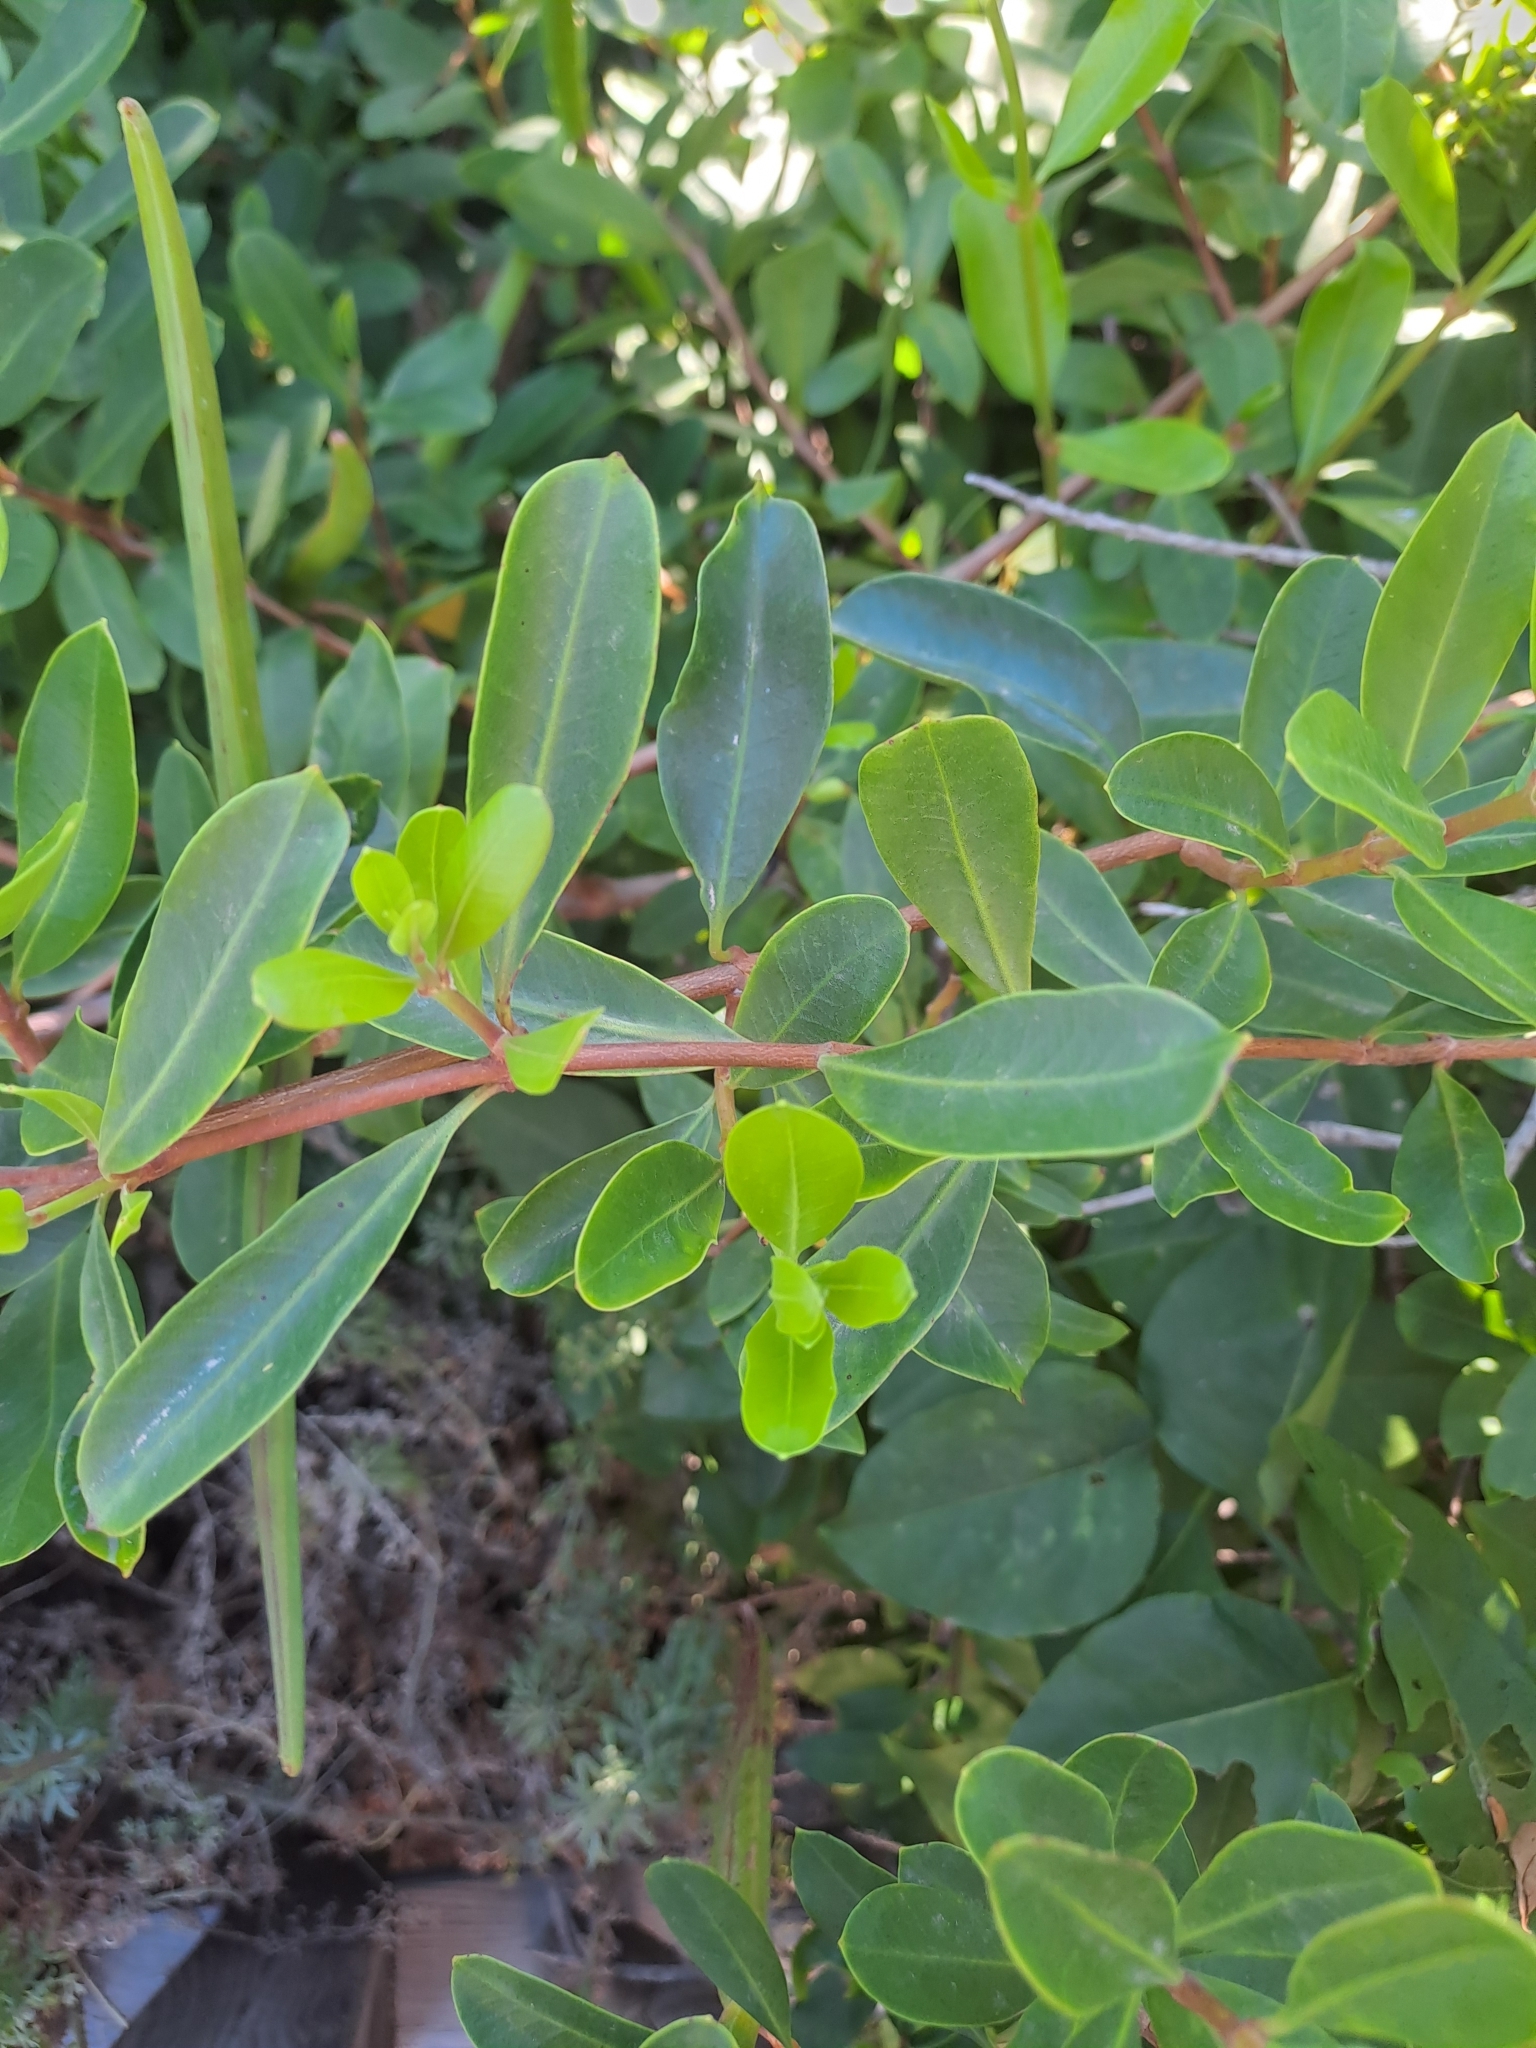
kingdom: Plantae
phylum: Tracheophyta
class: Magnoliopsida
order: Gentianales
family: Apocynaceae
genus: Periploca
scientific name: Periploca laevigata
